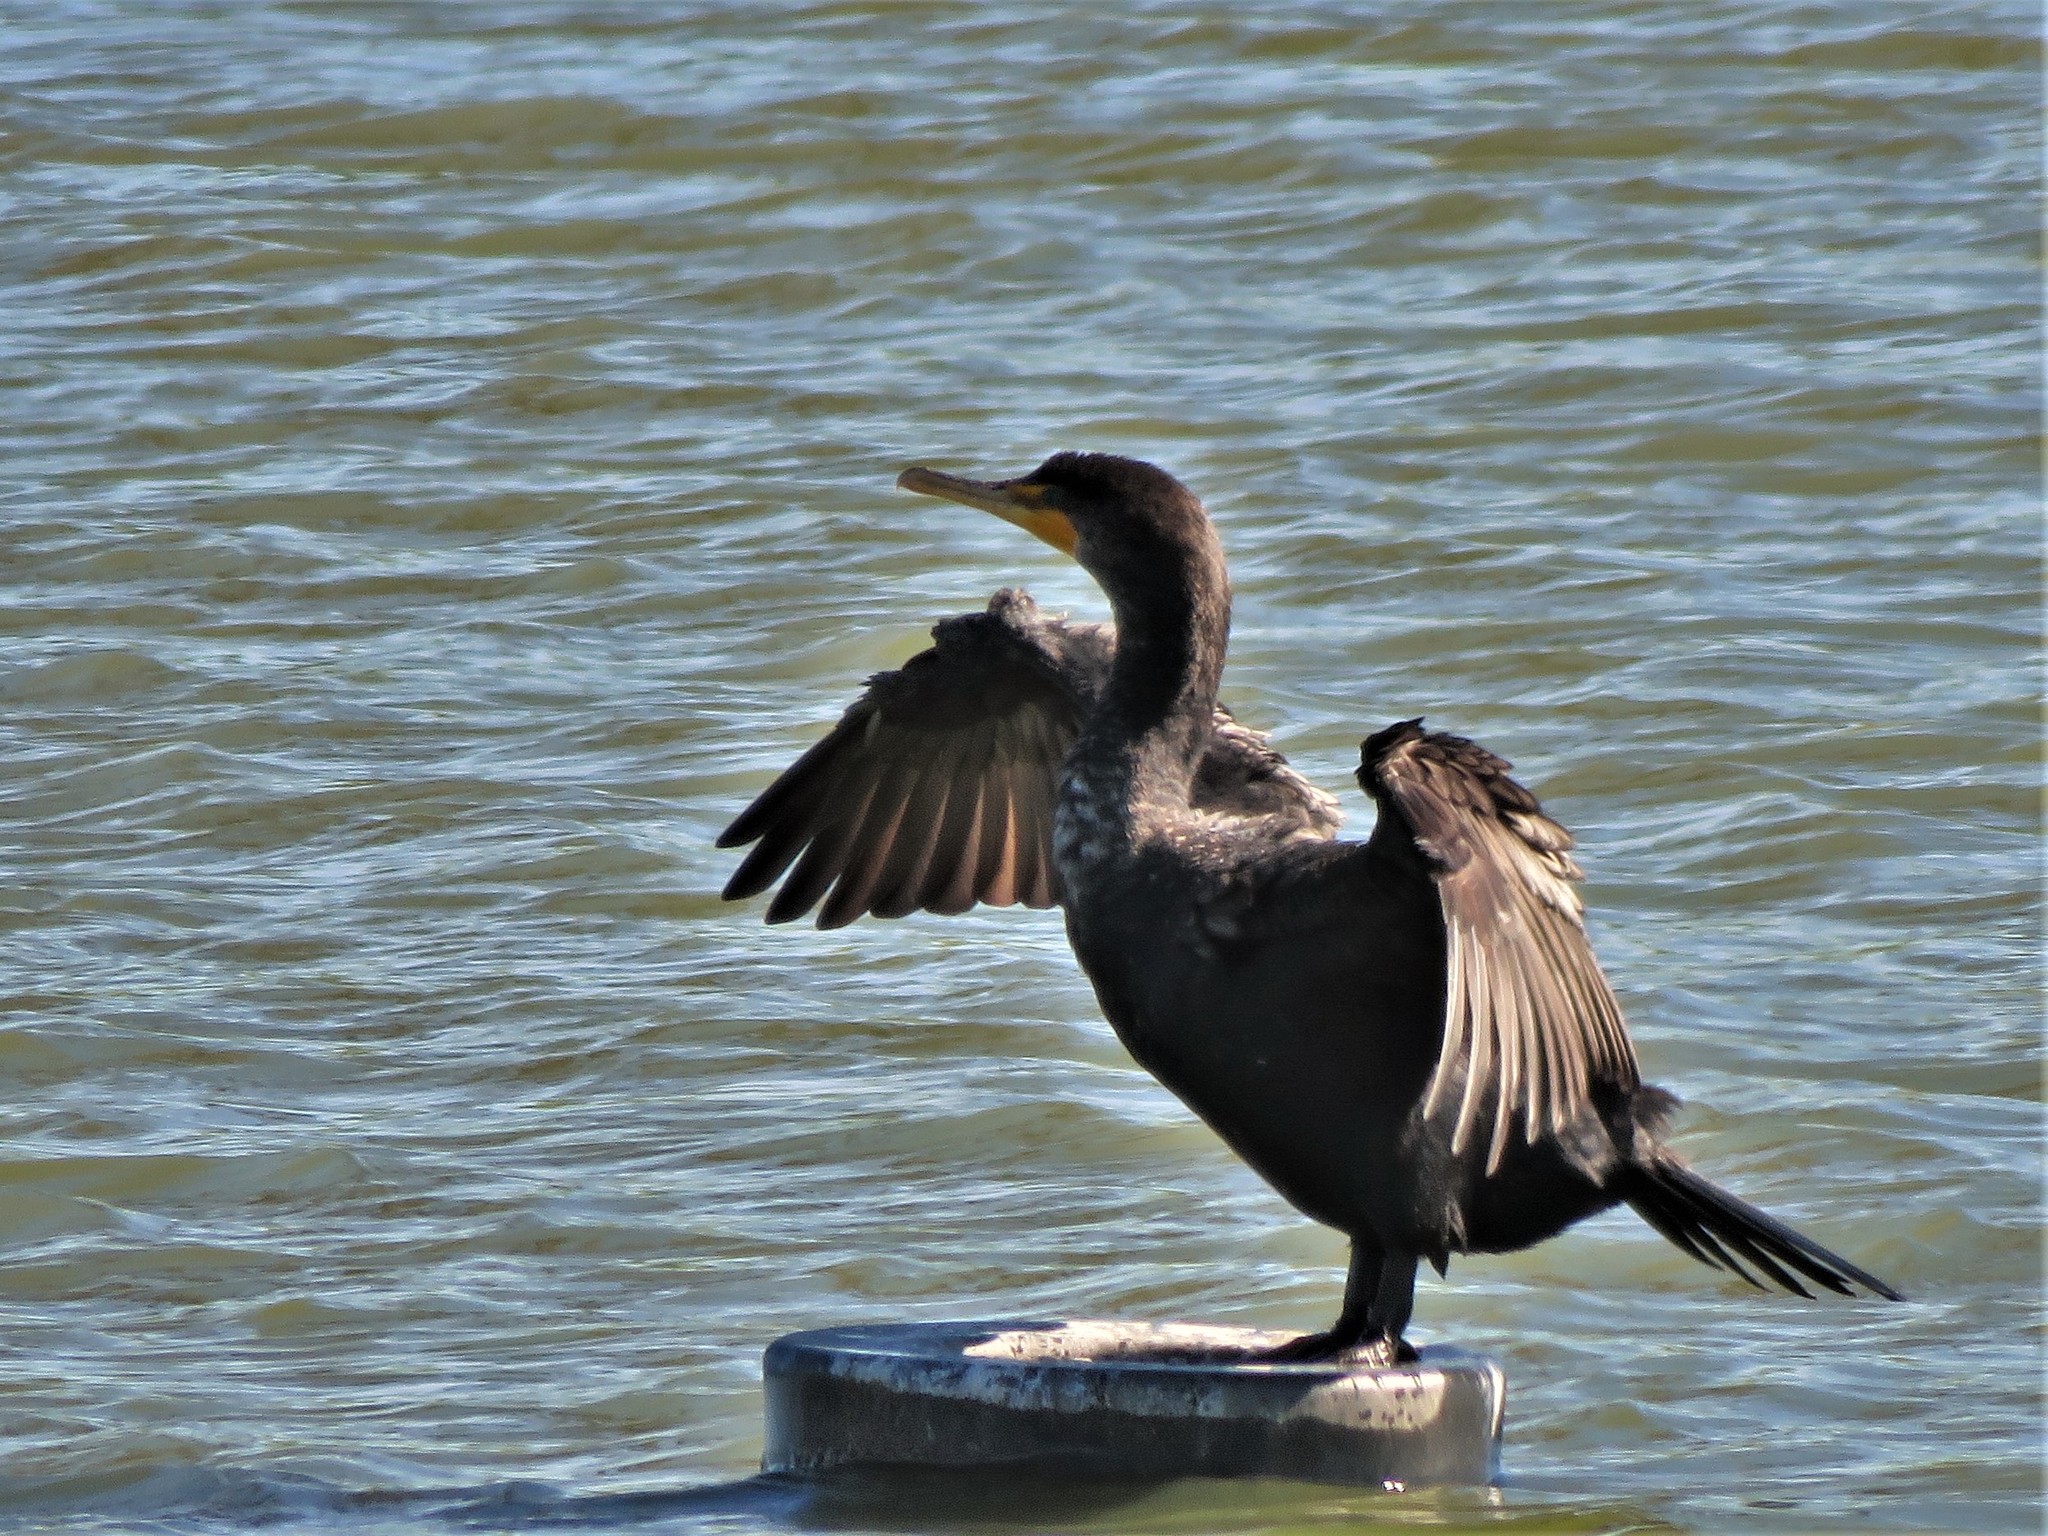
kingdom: Animalia
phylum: Chordata
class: Aves
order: Suliformes
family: Phalacrocoracidae
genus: Phalacrocorax
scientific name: Phalacrocorax auritus
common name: Double-crested cormorant
